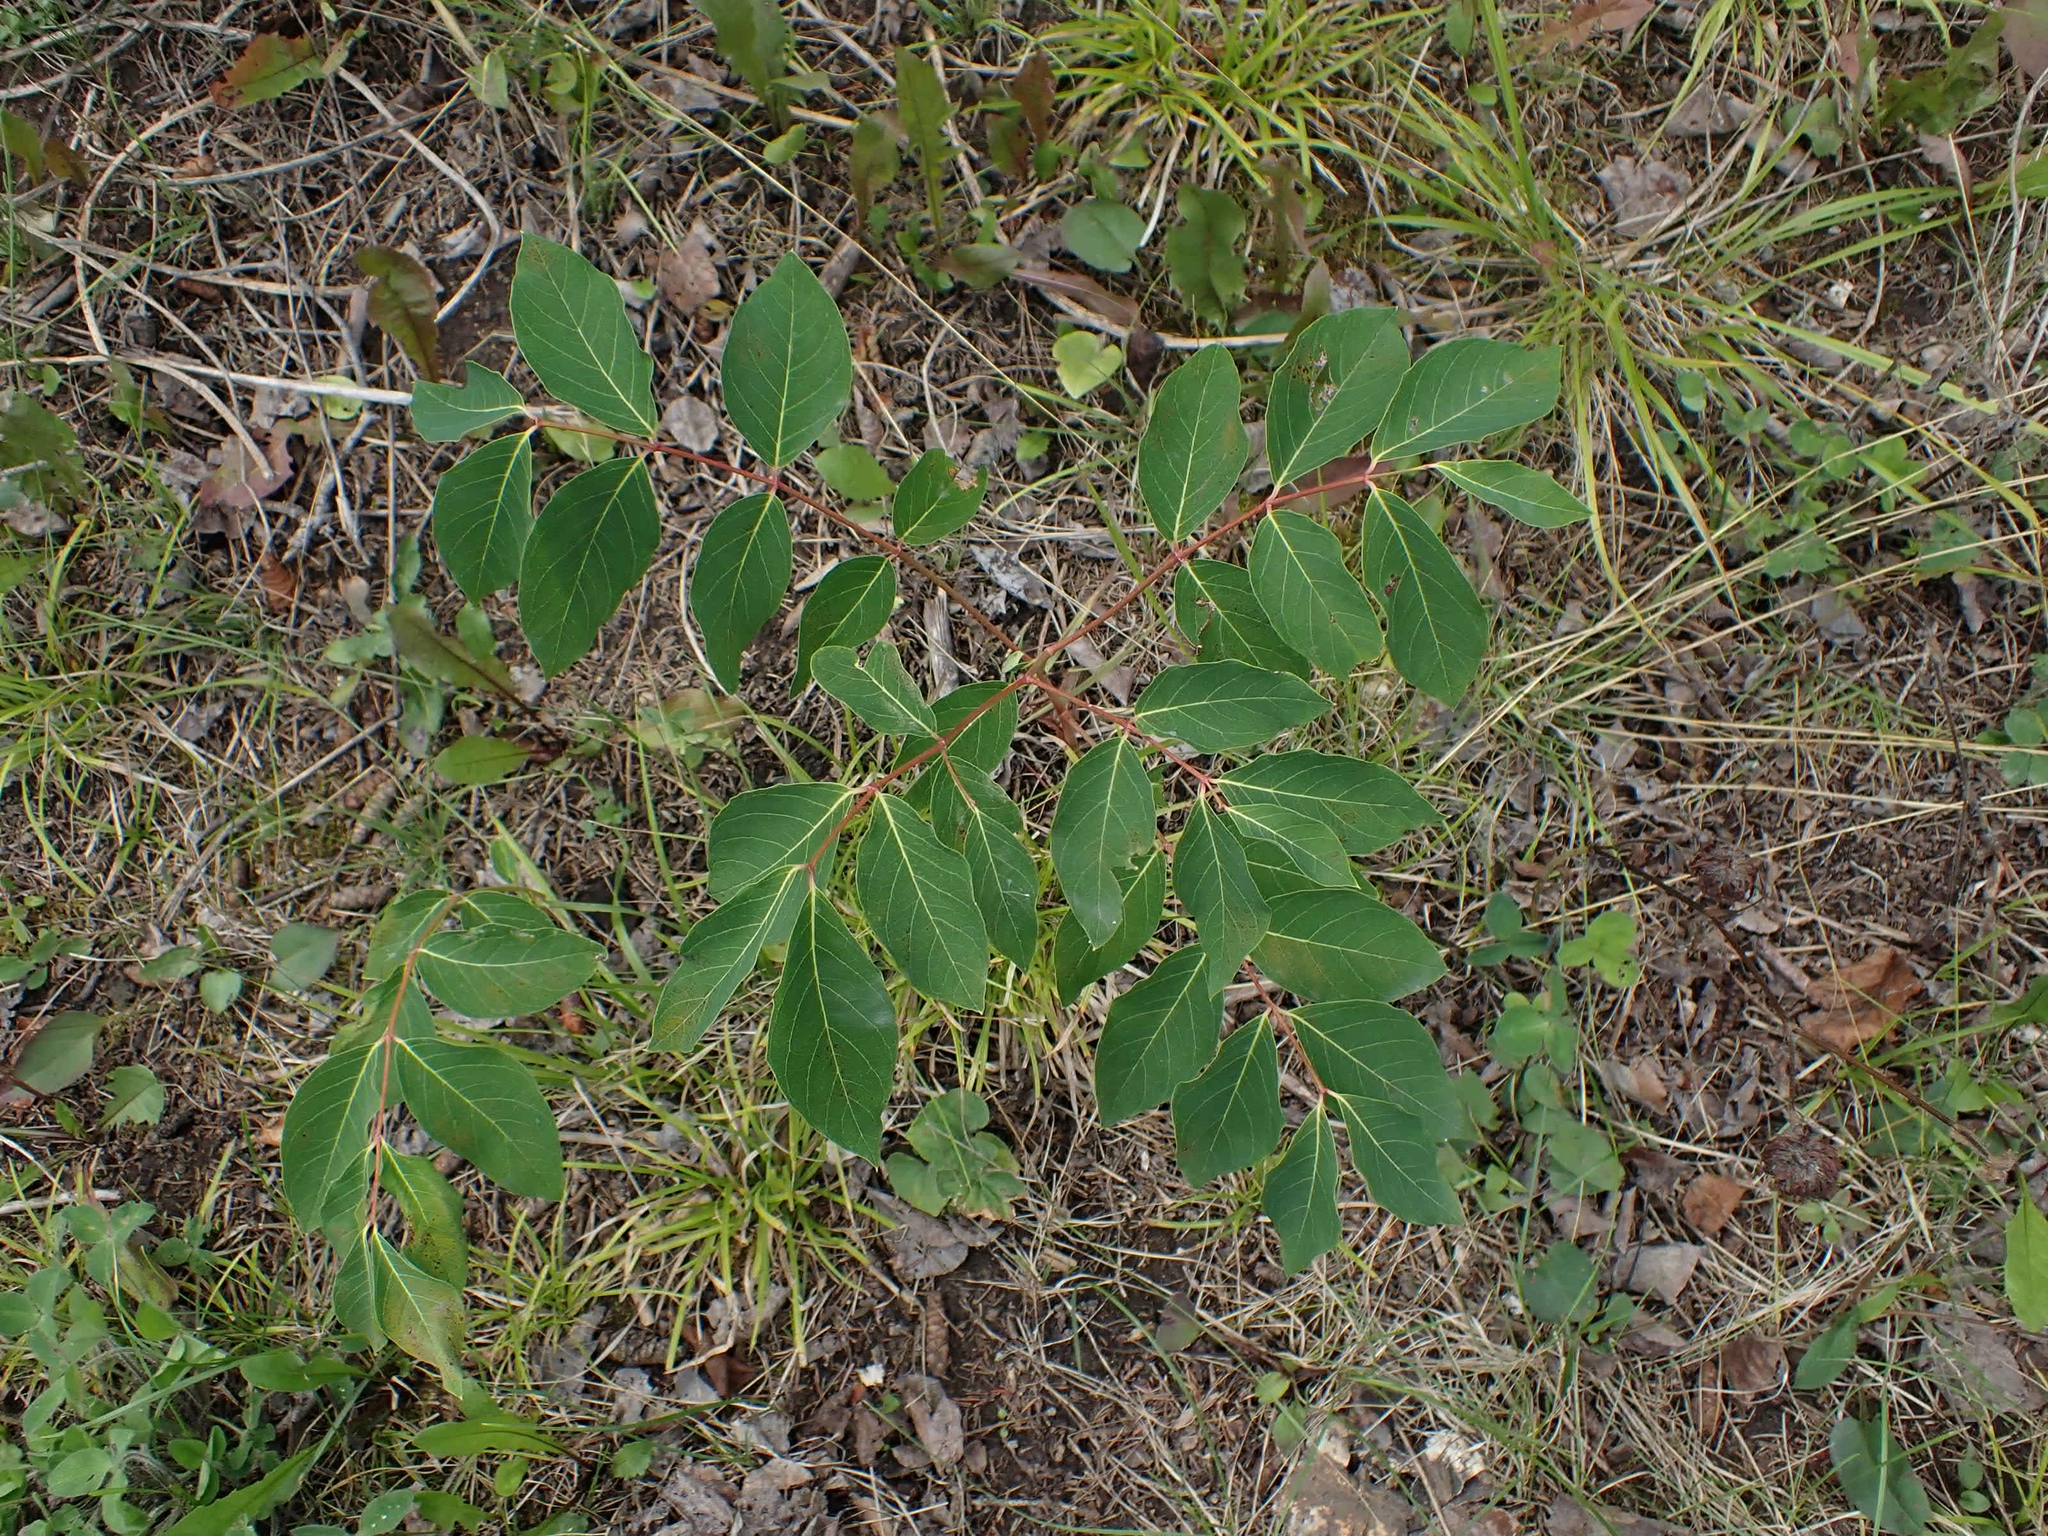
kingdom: Plantae
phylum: Tracheophyta
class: Magnoliopsida
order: Gentianales
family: Apocynaceae
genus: Apocynum
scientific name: Apocynum androsaemifolium
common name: Spreading dogbane
